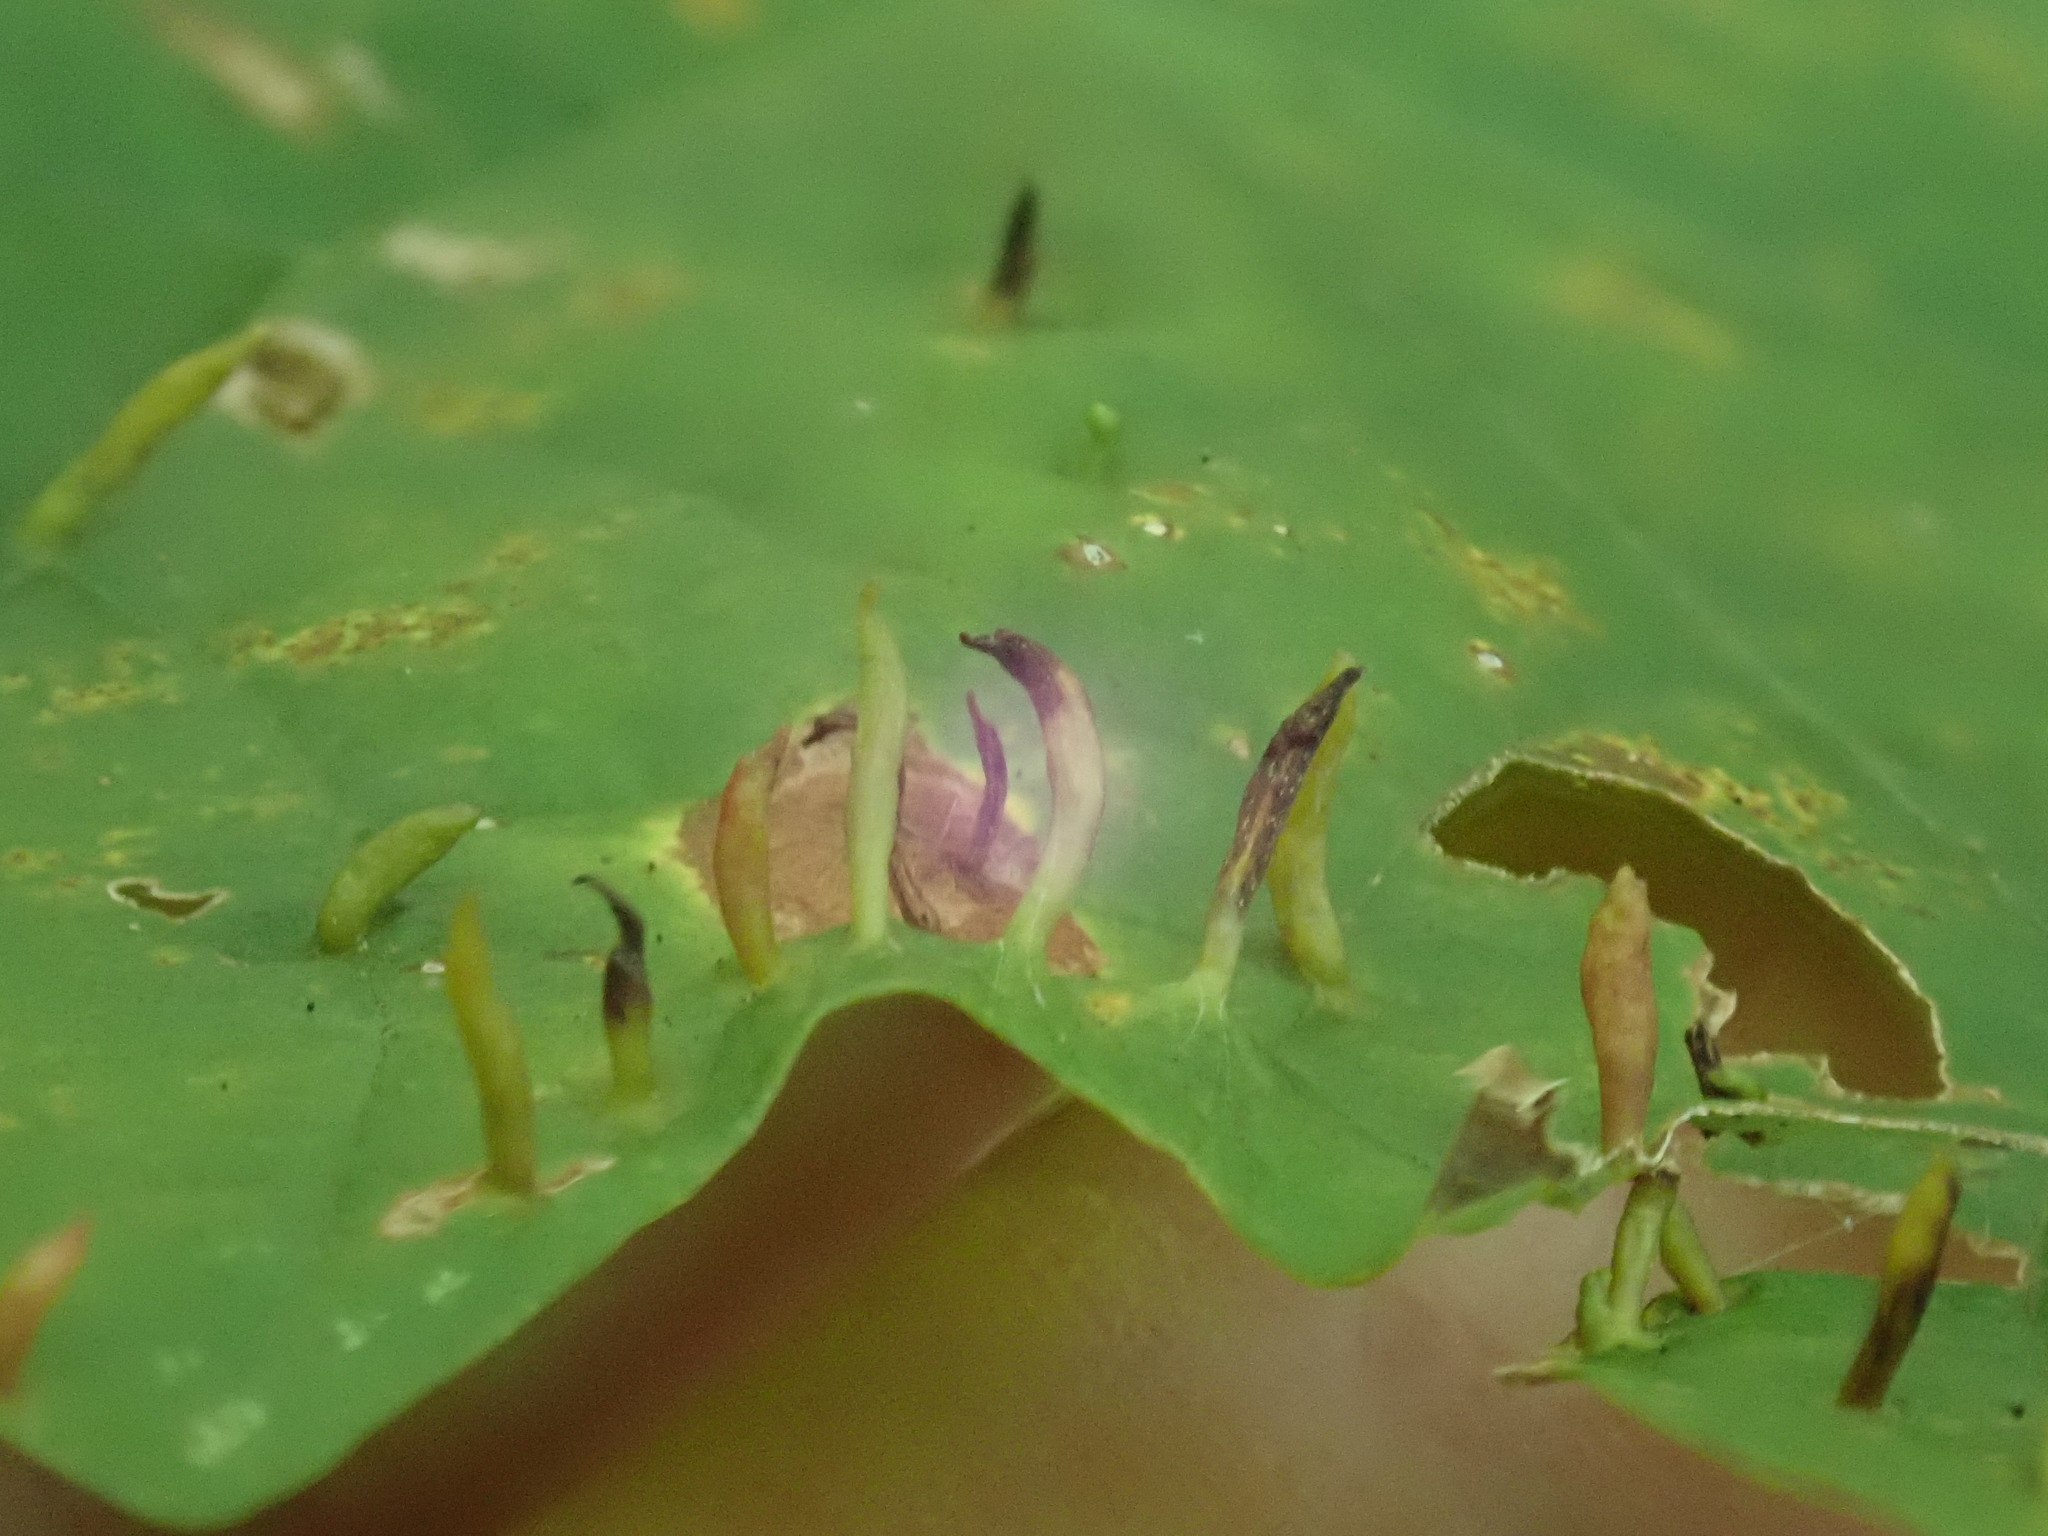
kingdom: Animalia
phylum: Arthropoda
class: Arachnida
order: Trombidiformes
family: Eriophyidae
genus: Vasates
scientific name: Vasates aceriscrumena
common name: Maple spindle gall mite
